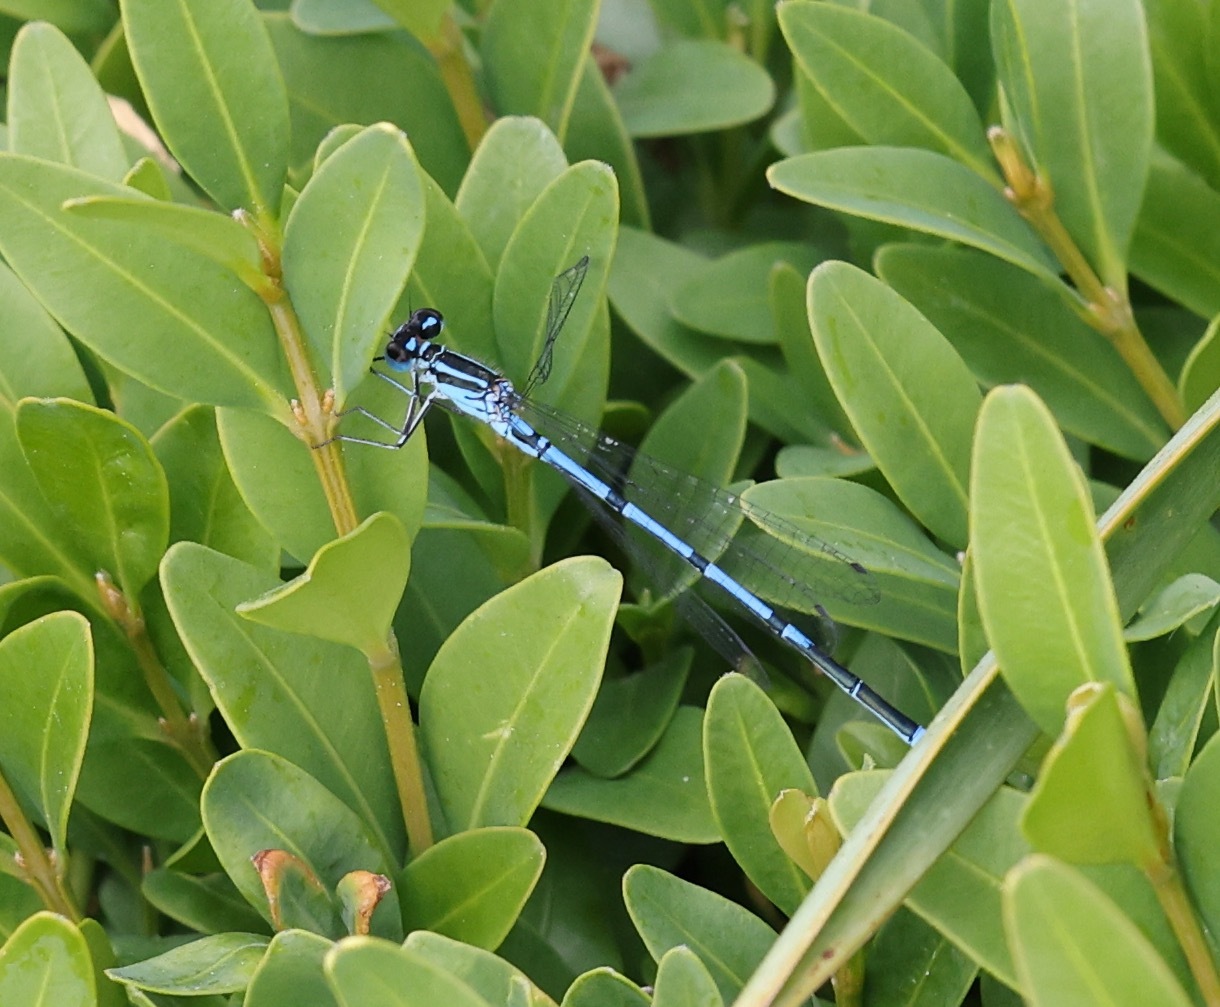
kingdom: Animalia
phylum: Arthropoda
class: Insecta
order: Odonata
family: Coenagrionidae
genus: Coenagrion
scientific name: Coenagrion puella
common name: Azure damselfly
